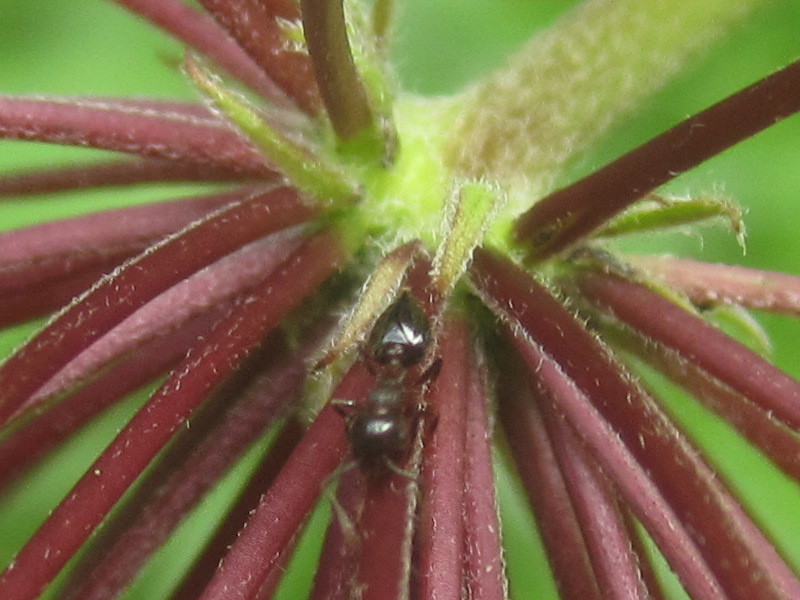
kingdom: Plantae
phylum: Tracheophyta
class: Magnoliopsida
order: Gentianales
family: Apocynaceae
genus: Asclepias
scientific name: Asclepias syriaca
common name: Common milkweed
